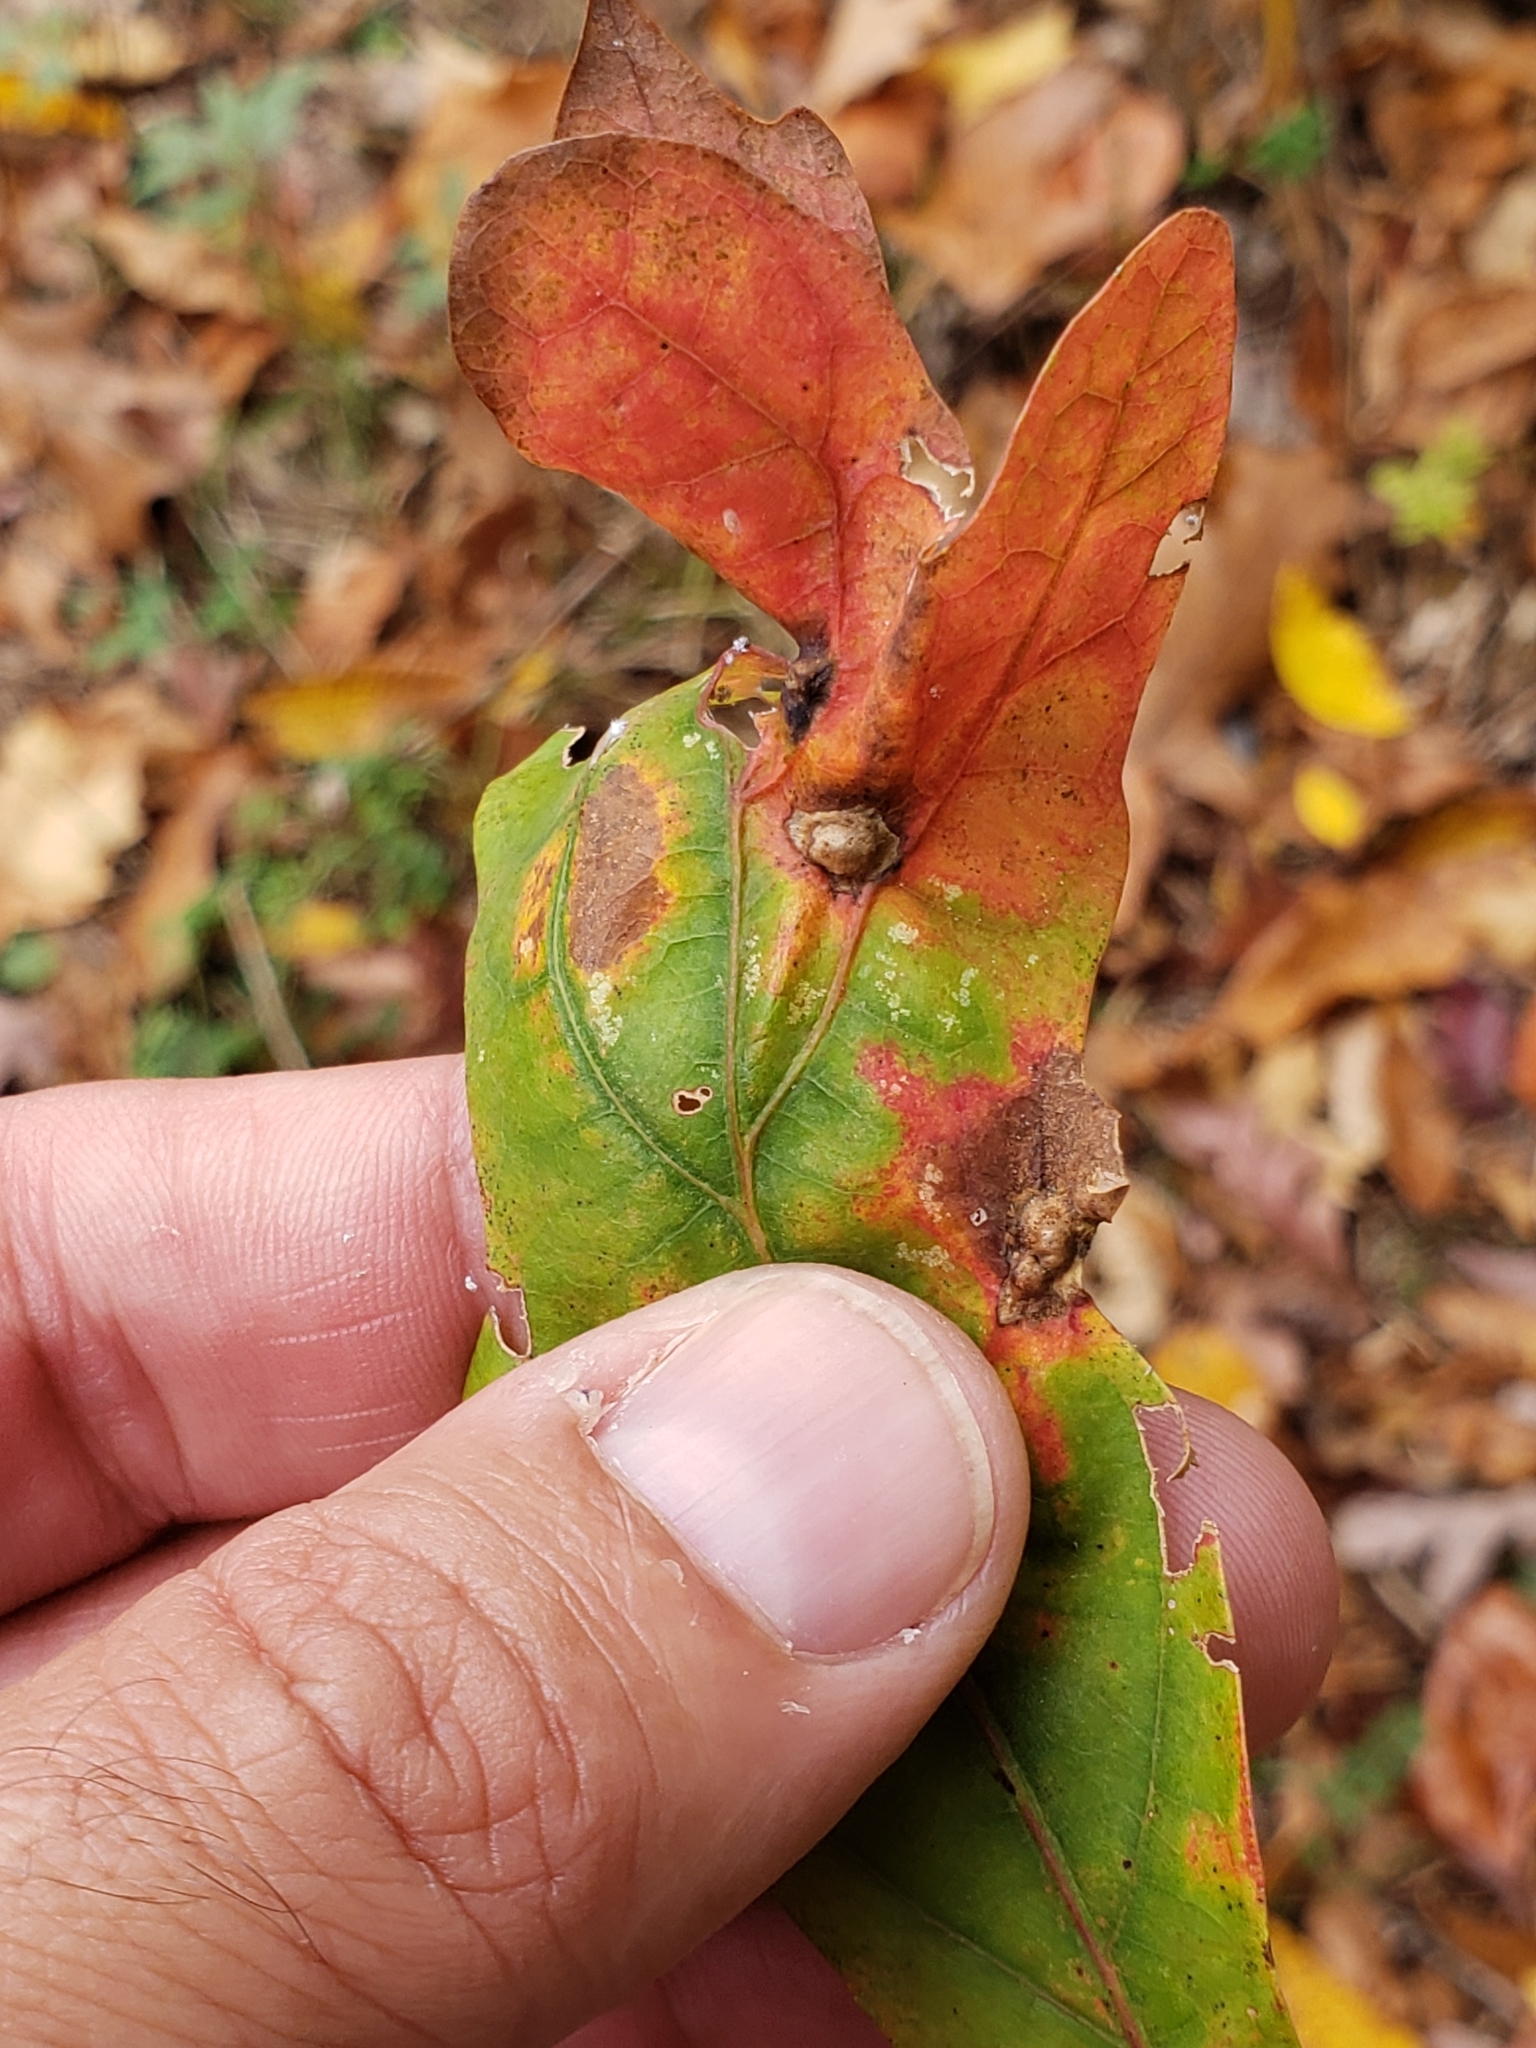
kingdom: Animalia
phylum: Arthropoda
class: Insecta
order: Hymenoptera
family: Cynipidae
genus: Callirhytis
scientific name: Callirhytis
